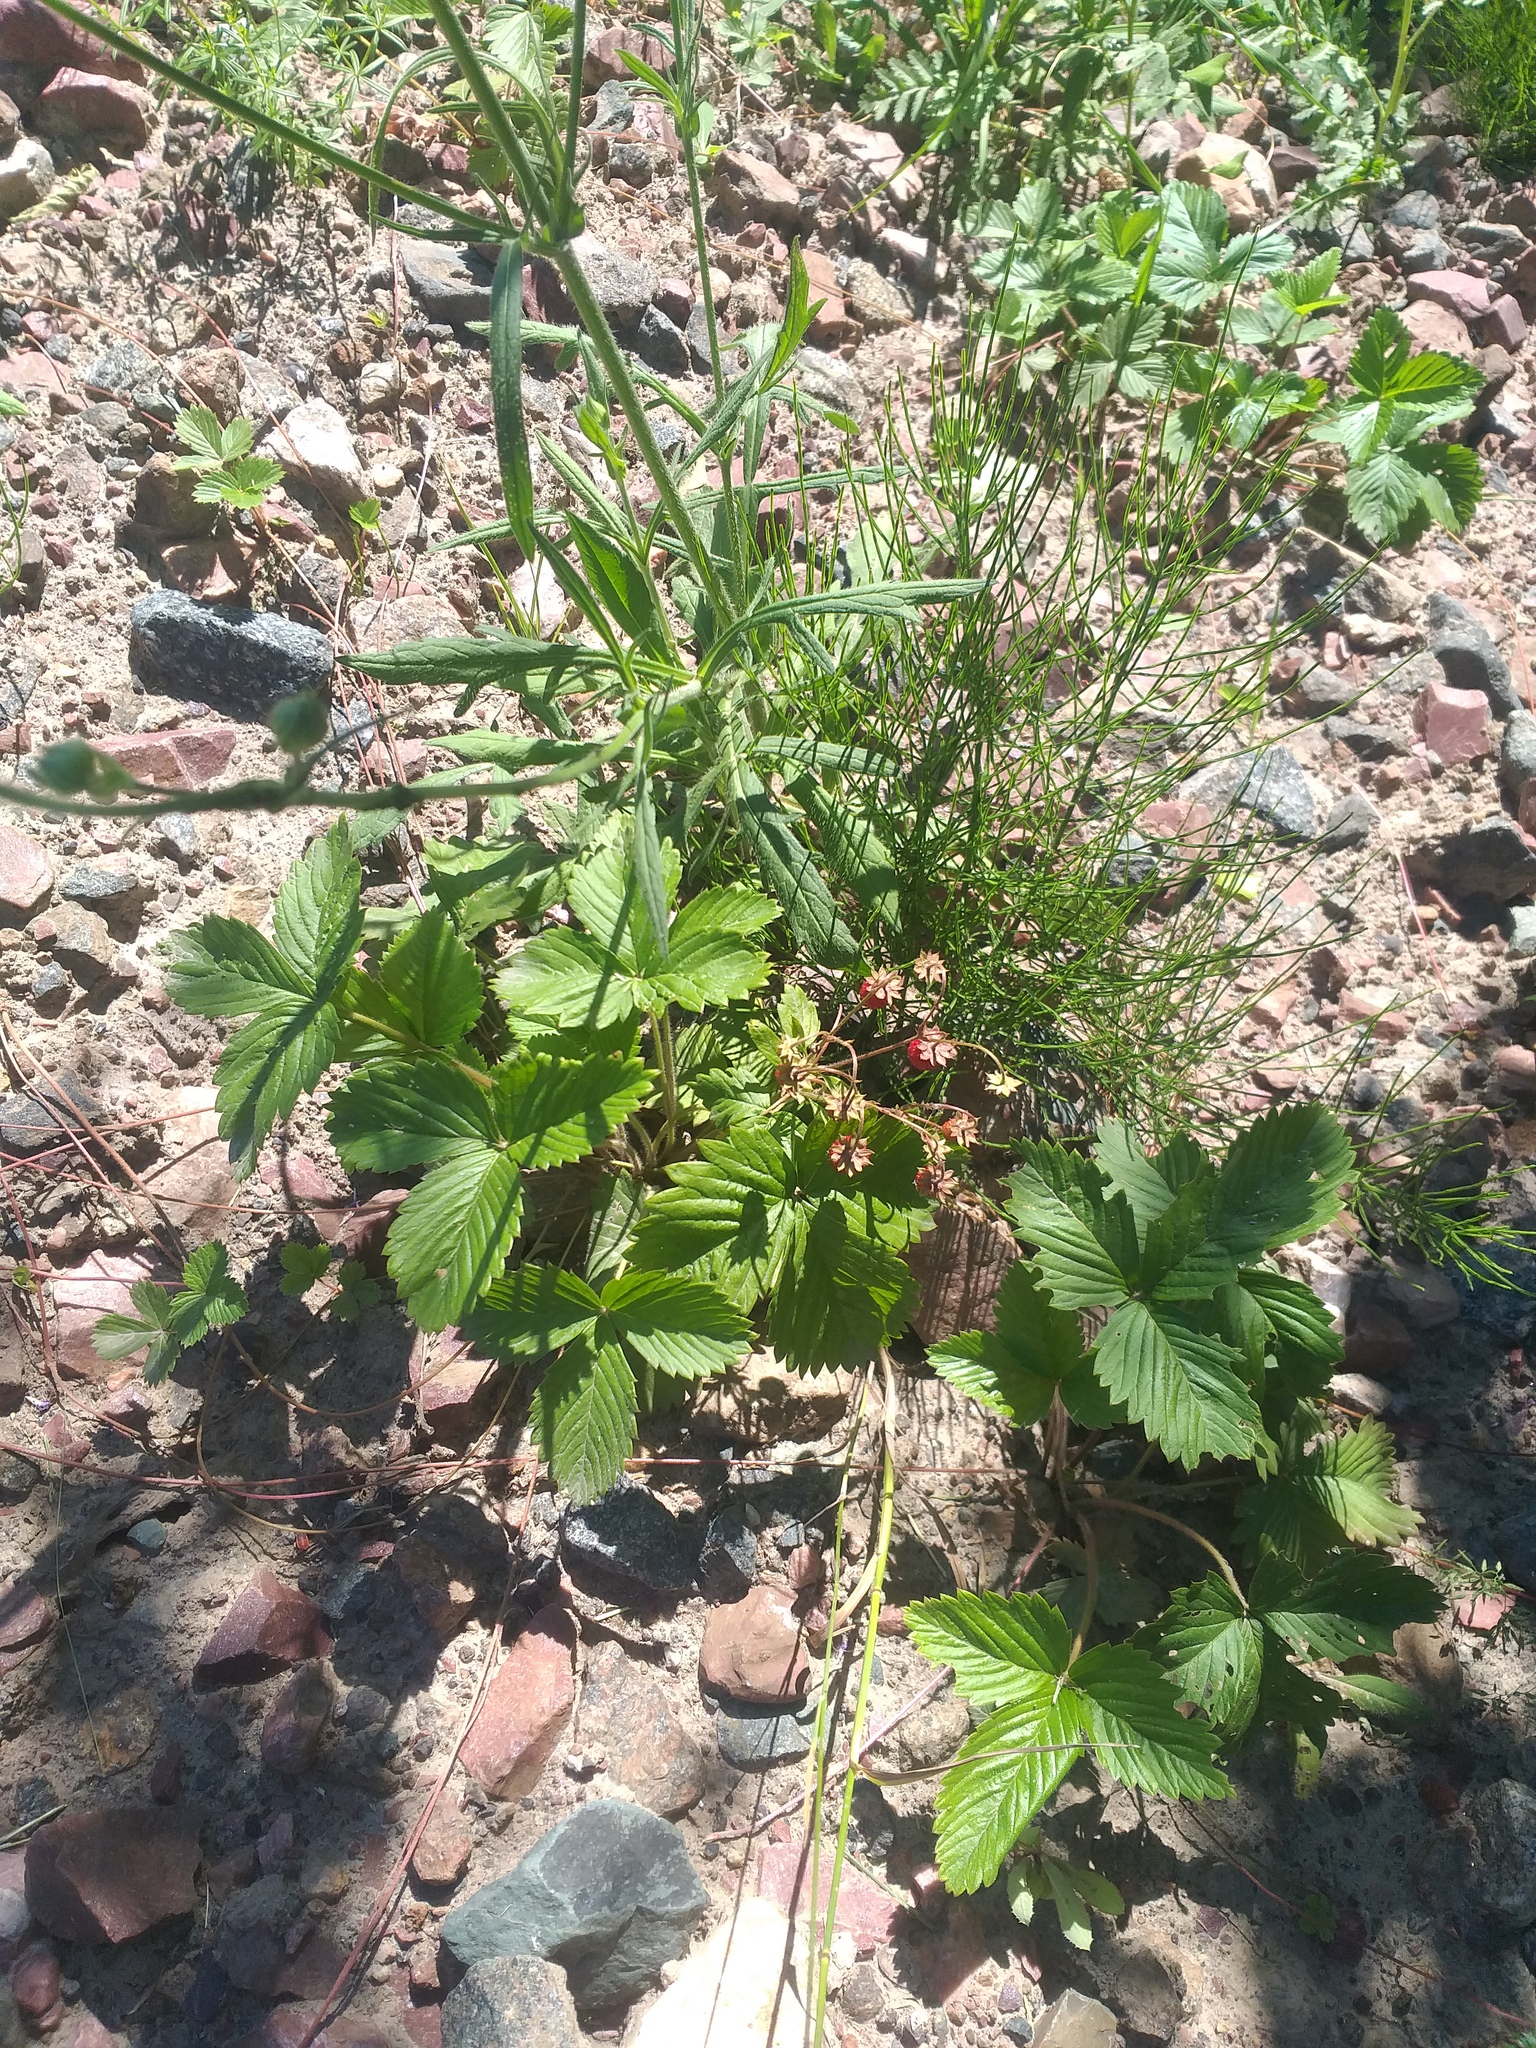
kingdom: Plantae
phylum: Tracheophyta
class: Magnoliopsida
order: Rosales
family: Rosaceae
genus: Fragaria
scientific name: Fragaria vesca
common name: Wild strawberry
